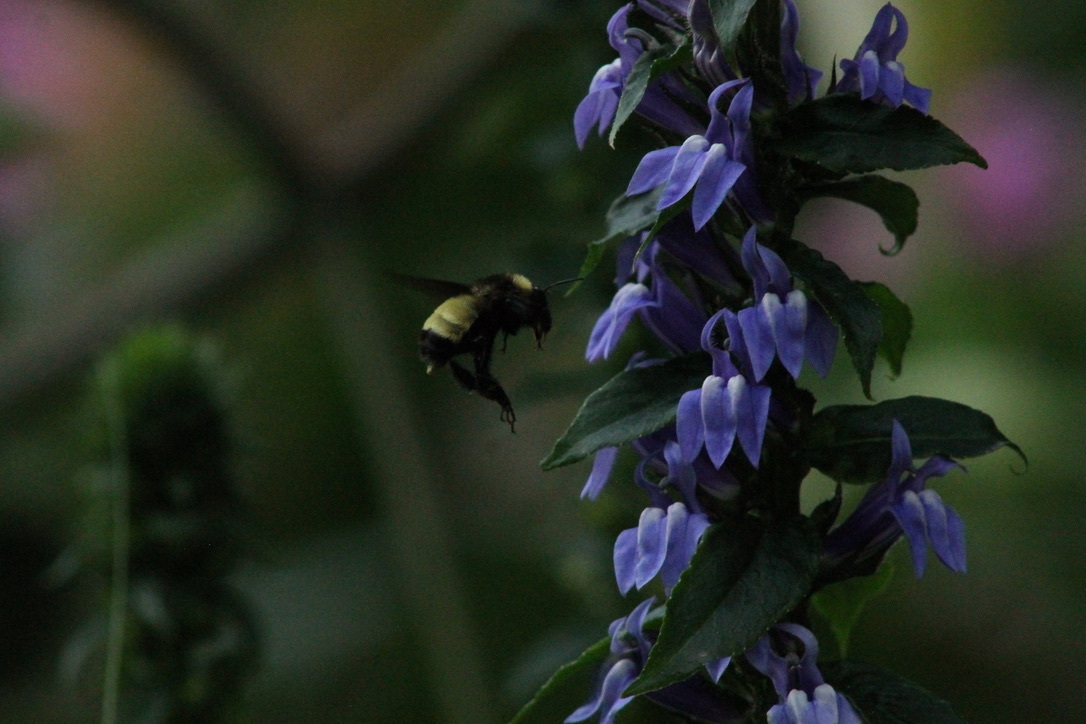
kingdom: Animalia
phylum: Arthropoda
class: Insecta
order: Hymenoptera
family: Apidae
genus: Bombus
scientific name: Bombus pensylvanicus
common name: Bumble bee
